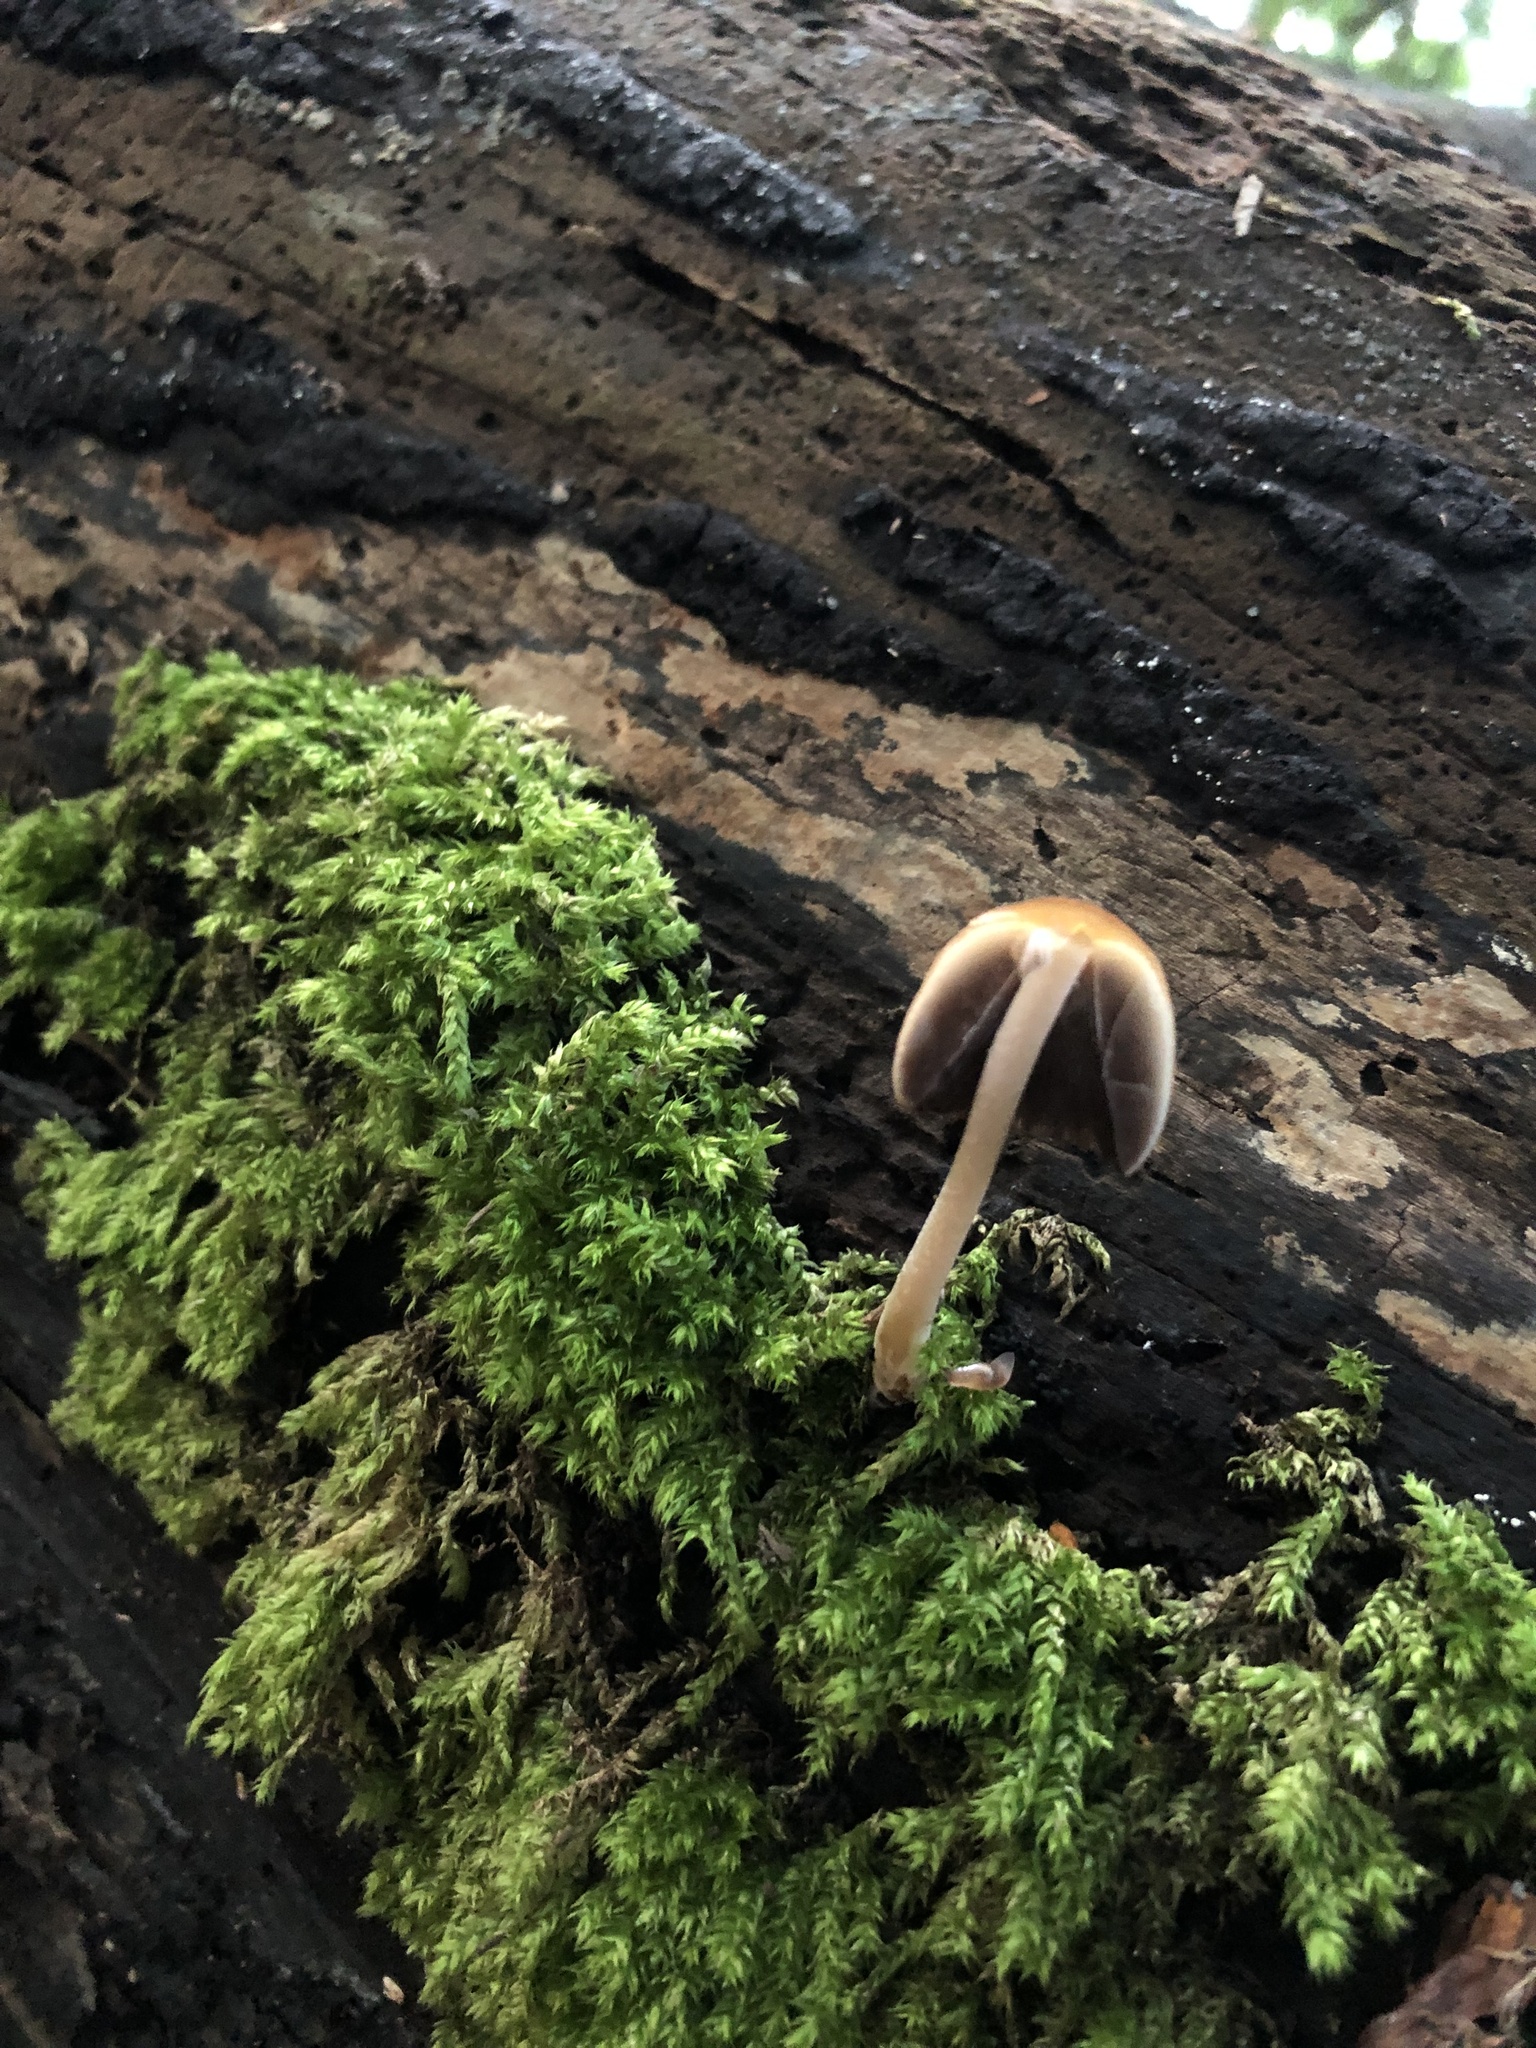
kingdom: Fungi
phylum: Basidiomycota
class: Agaricomycetes
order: Agaricales
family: Psathyrellaceae
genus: Coprinellus
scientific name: Coprinellus
